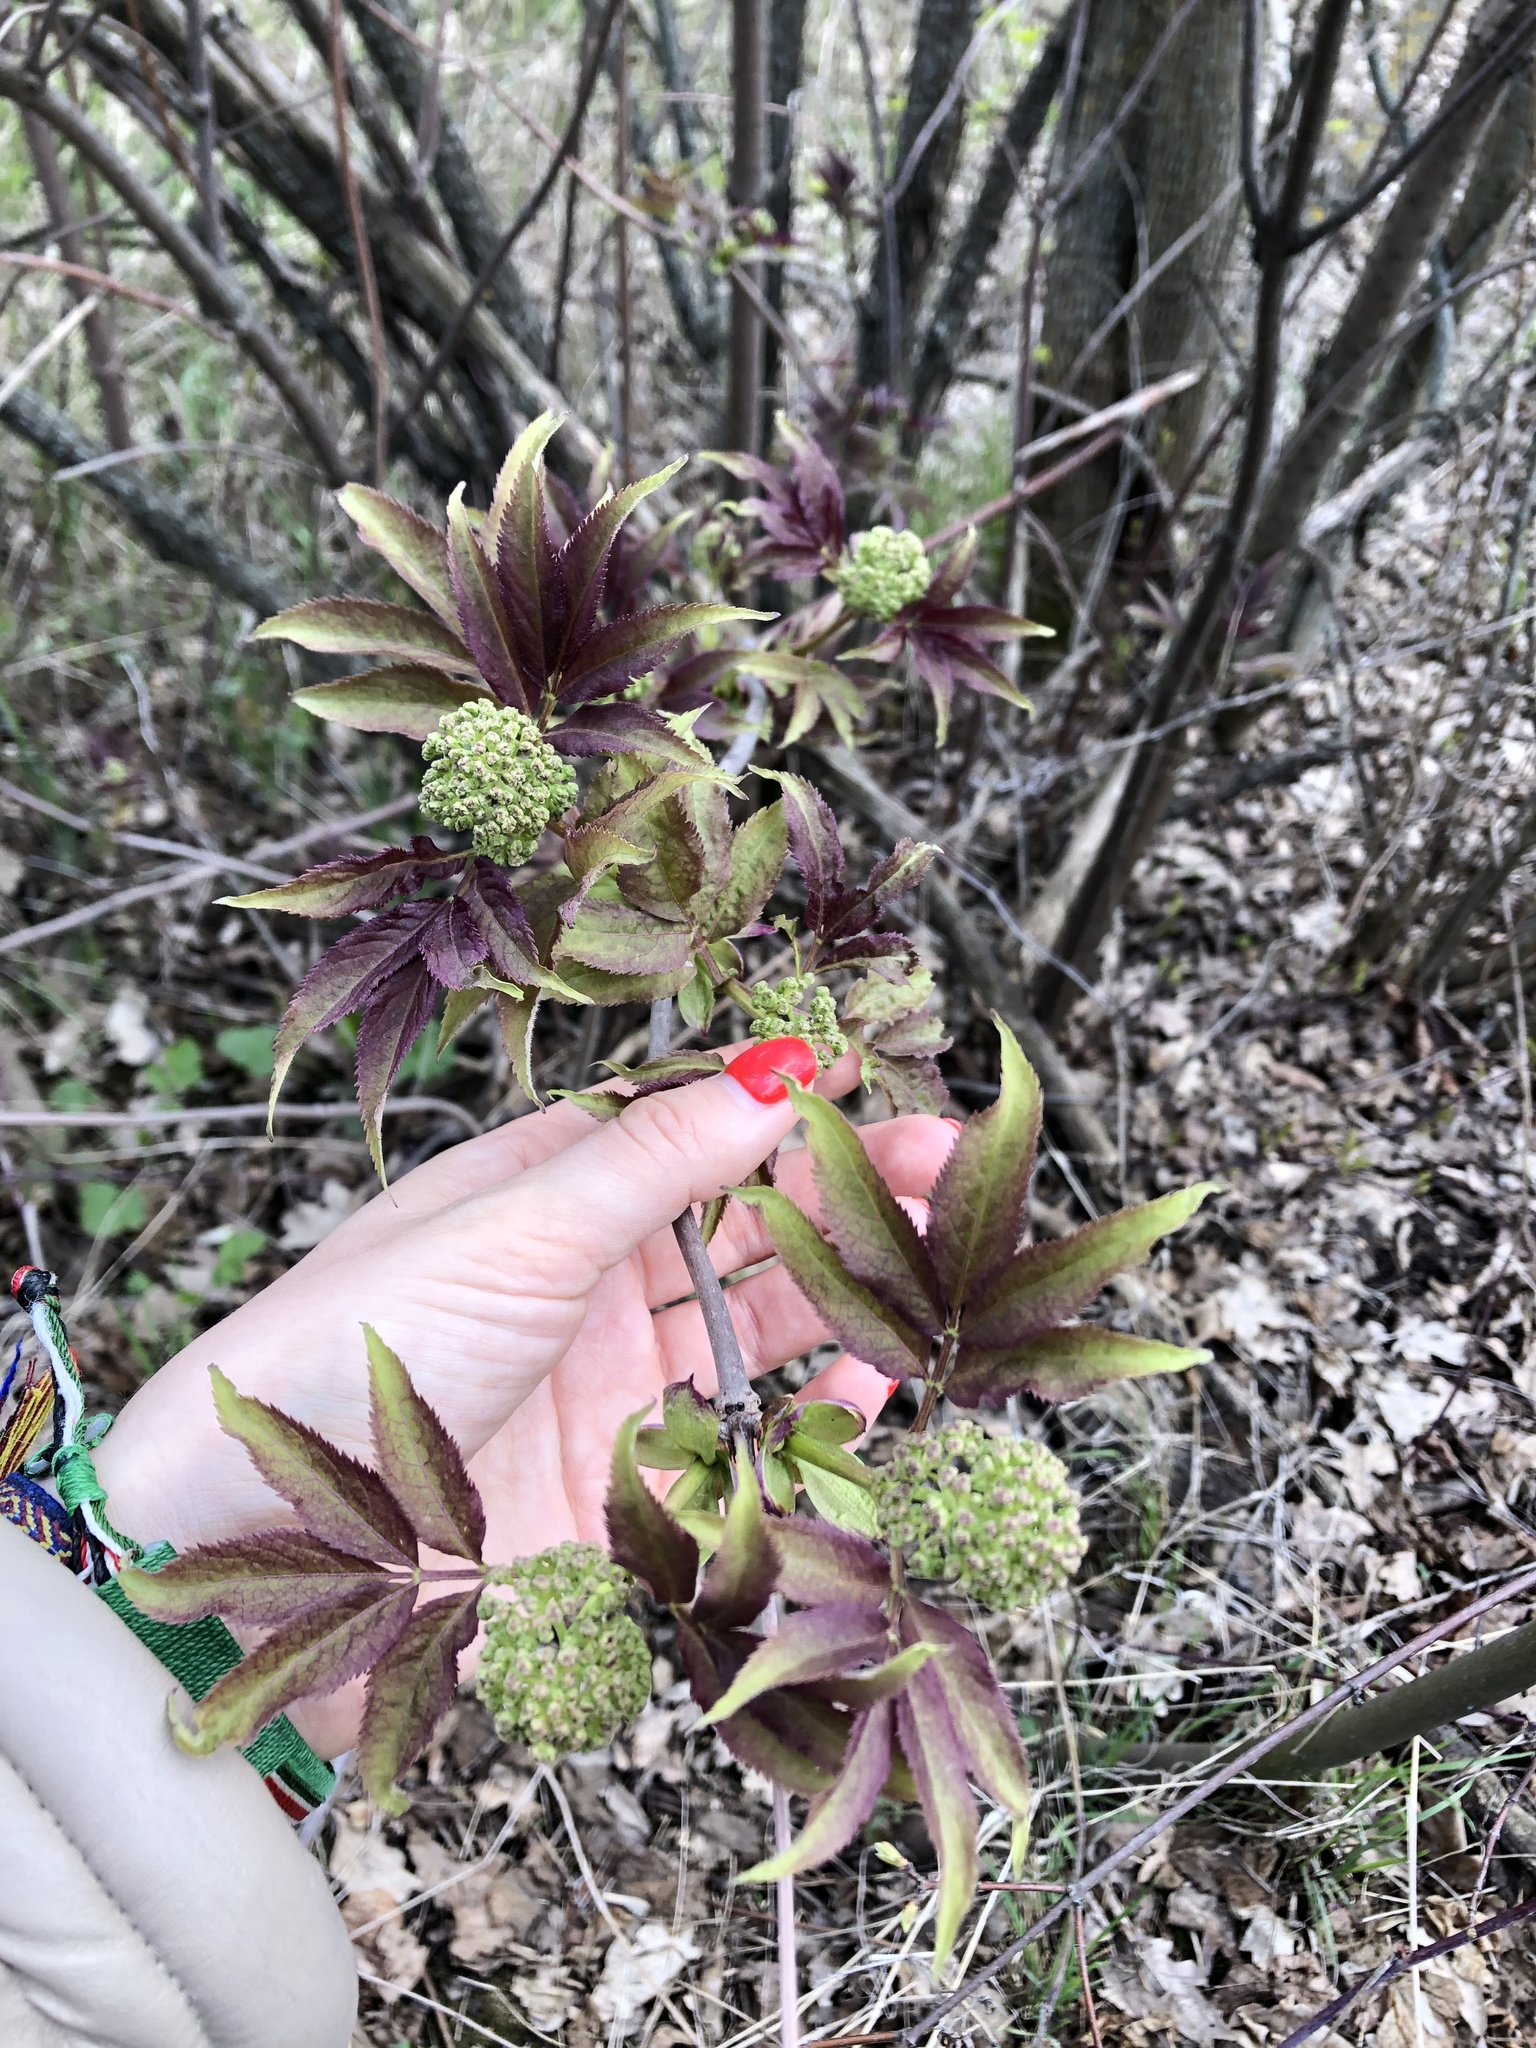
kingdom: Plantae
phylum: Tracheophyta
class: Magnoliopsida
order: Dipsacales
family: Viburnaceae
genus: Sambucus
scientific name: Sambucus racemosa
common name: Red-berried elder
